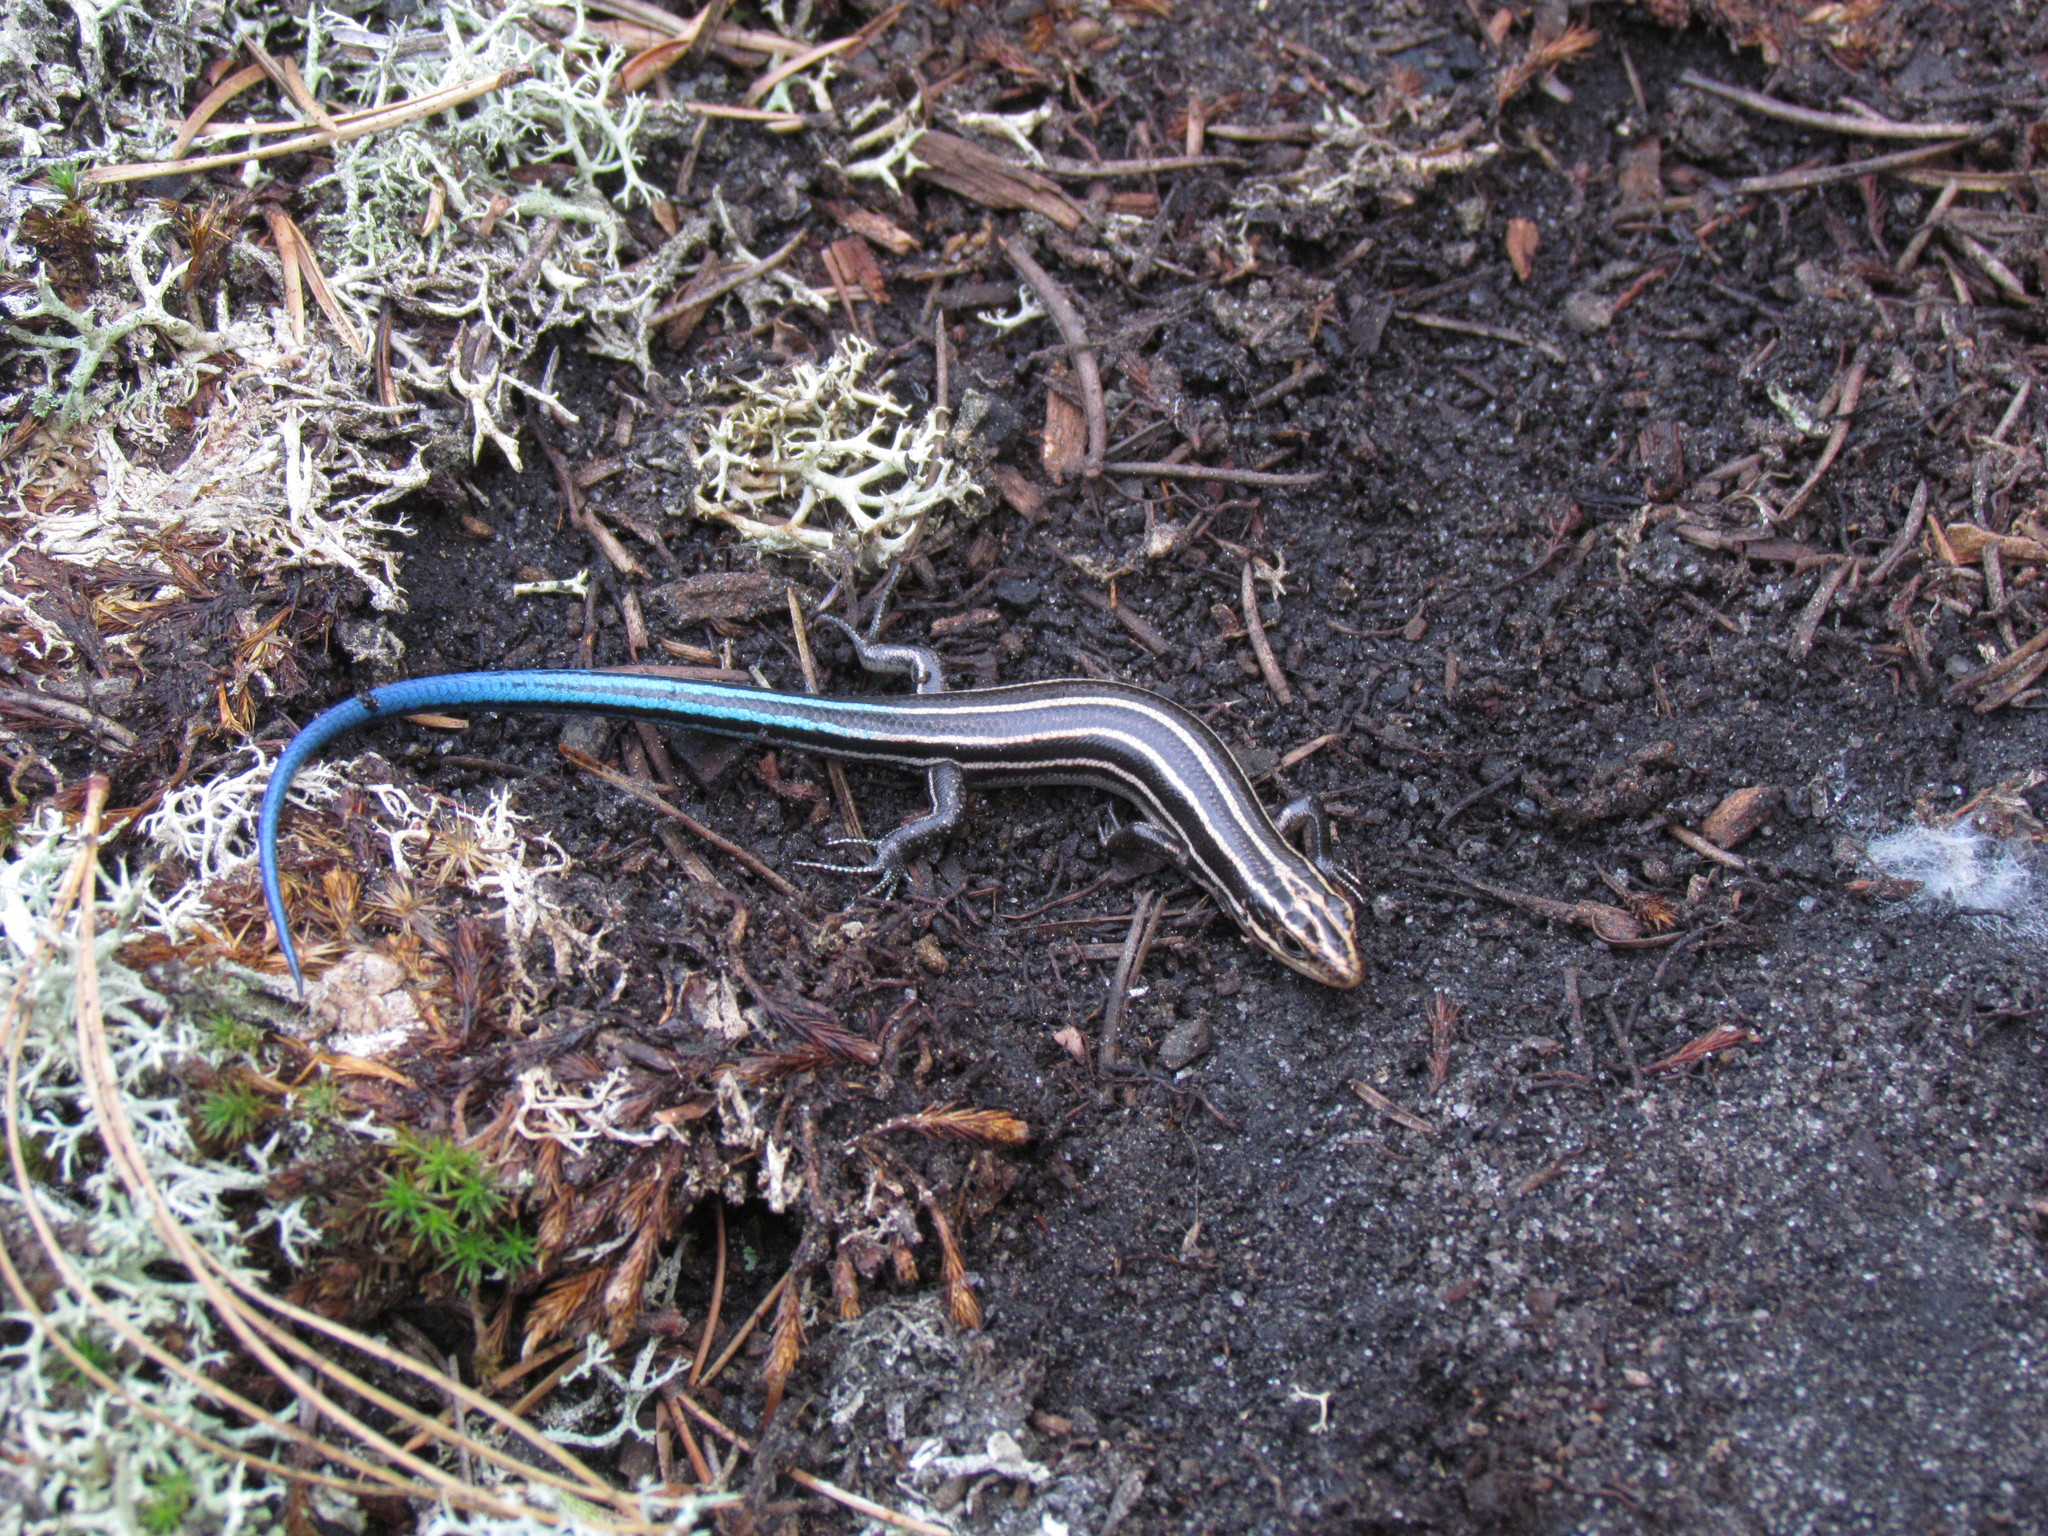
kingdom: Animalia
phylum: Chordata
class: Squamata
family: Scincidae
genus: Plestiodon
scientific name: Plestiodon fasciatus
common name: Five-lined skink
